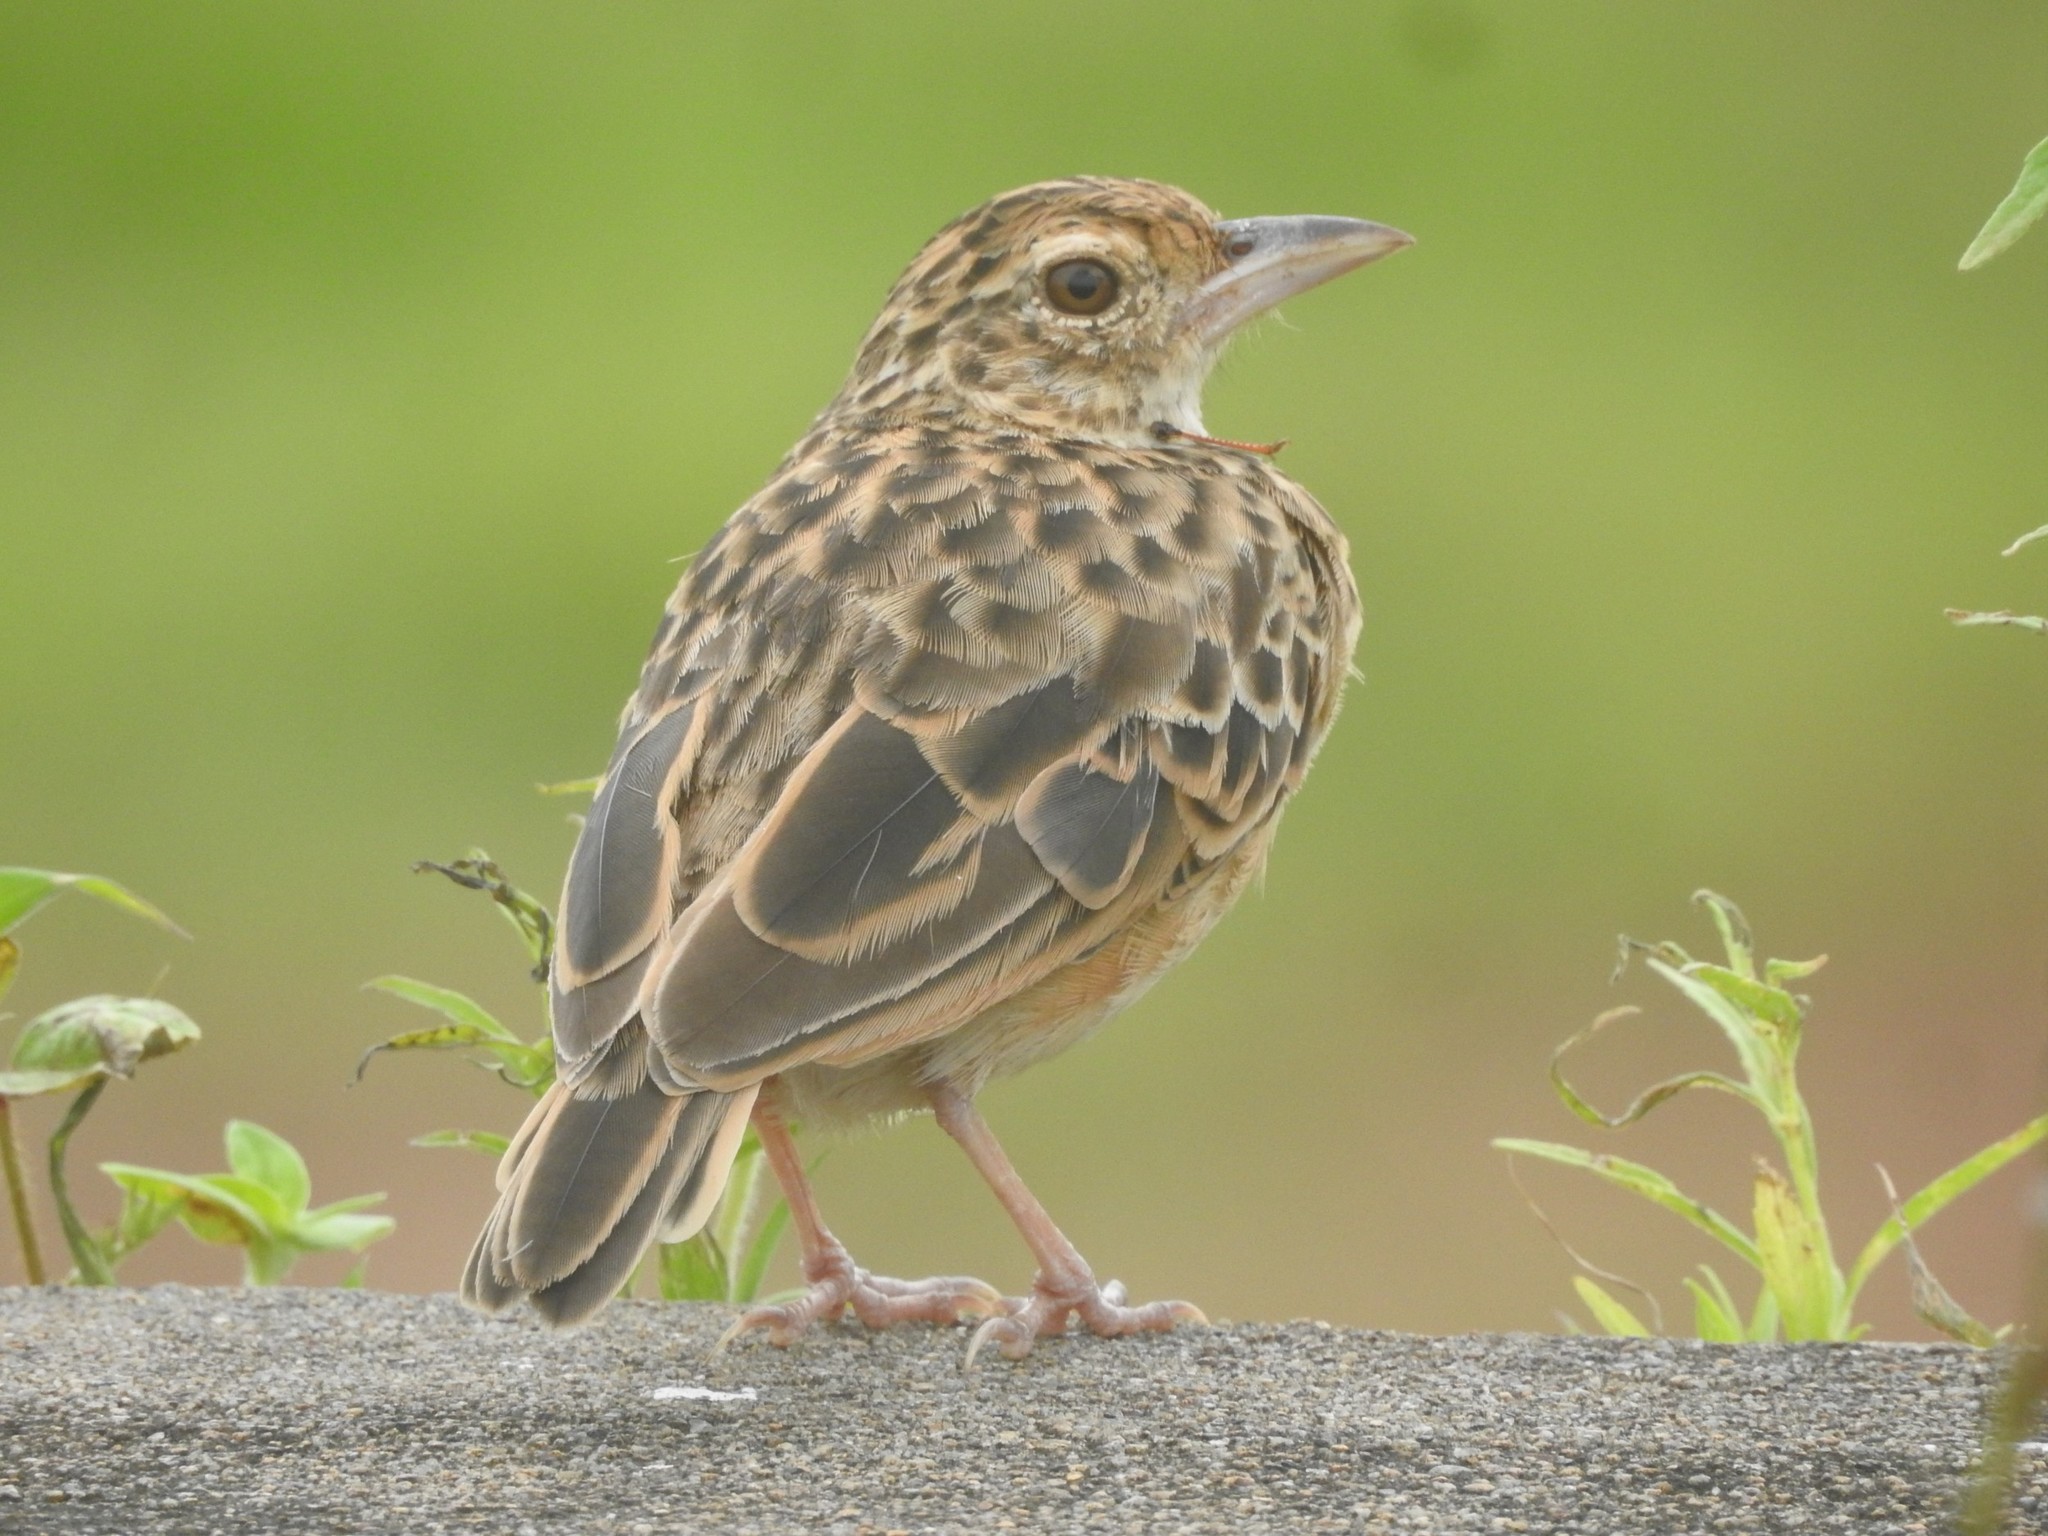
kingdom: Animalia
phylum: Chordata
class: Aves
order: Passeriformes
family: Alaudidae
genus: Mirafra
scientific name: Mirafra affinis
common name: Jerdon's bushlark
